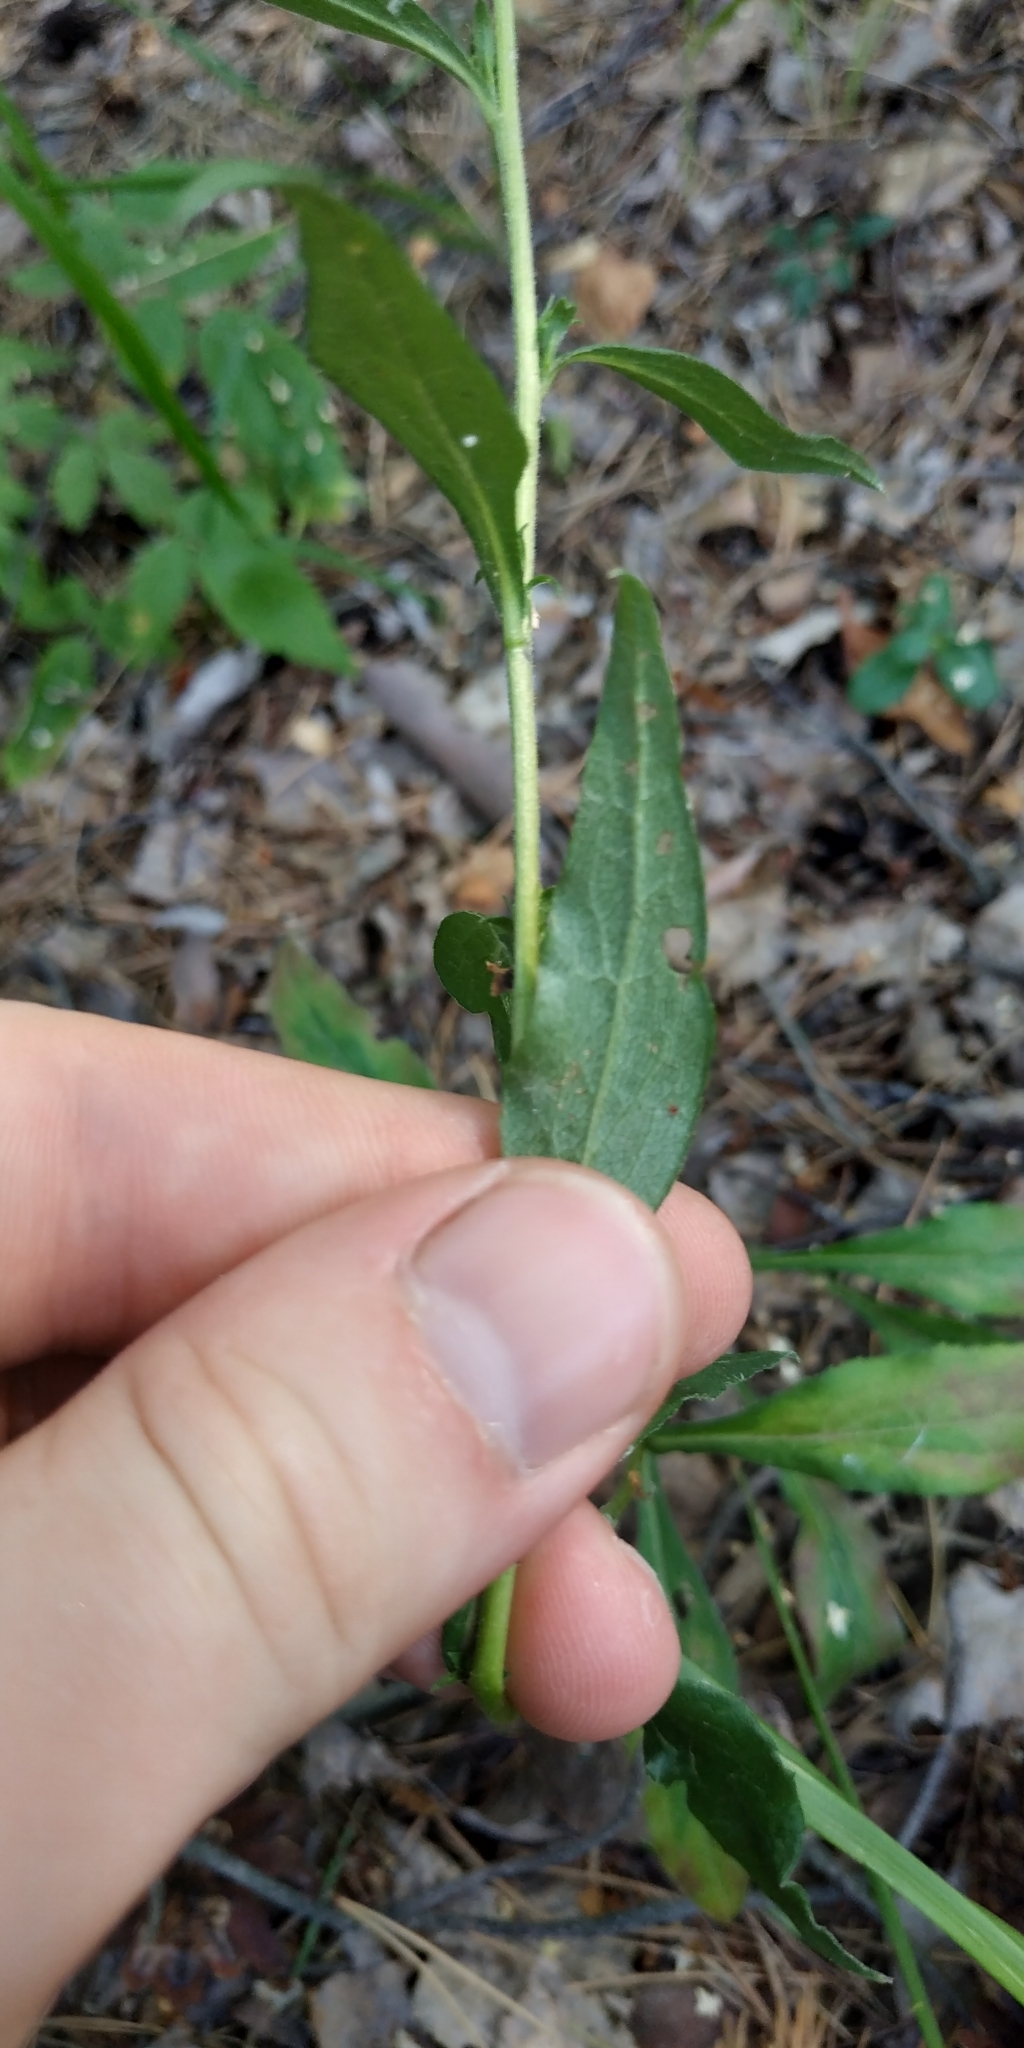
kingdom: Plantae
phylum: Tracheophyta
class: Magnoliopsida
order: Asterales
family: Asteraceae
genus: Solidago
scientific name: Solidago virgaurea
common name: Goldenrod
